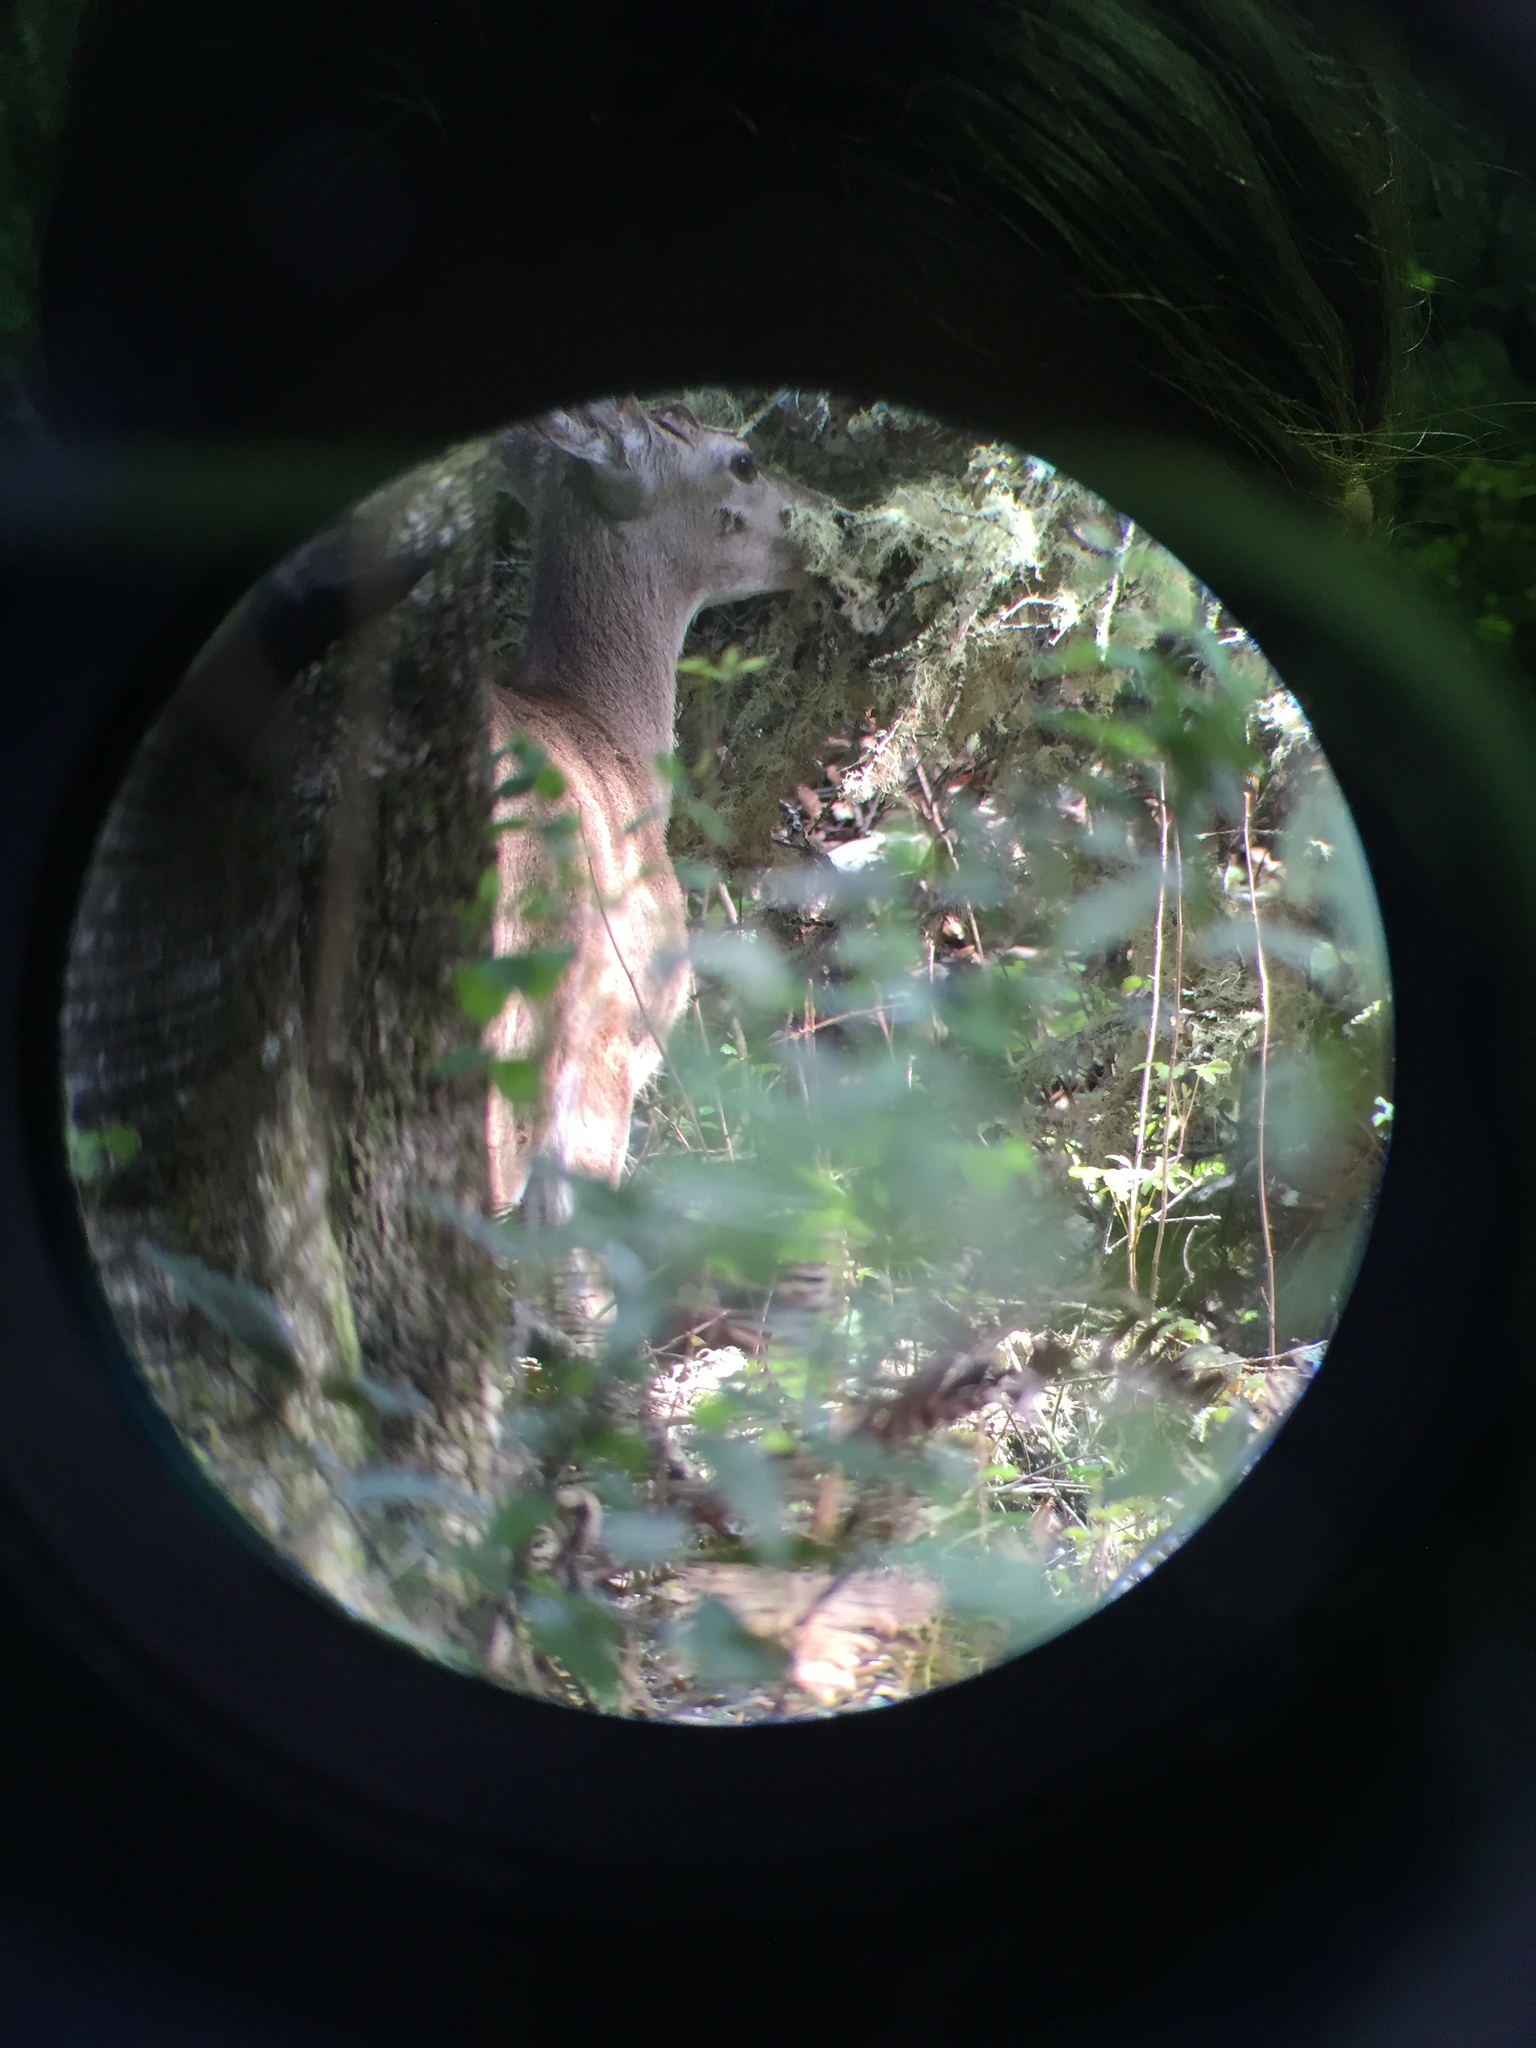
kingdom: Animalia
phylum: Chordata
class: Mammalia
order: Artiodactyla
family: Cervidae
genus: Odocoileus
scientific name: Odocoileus hemionus
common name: Mule deer
